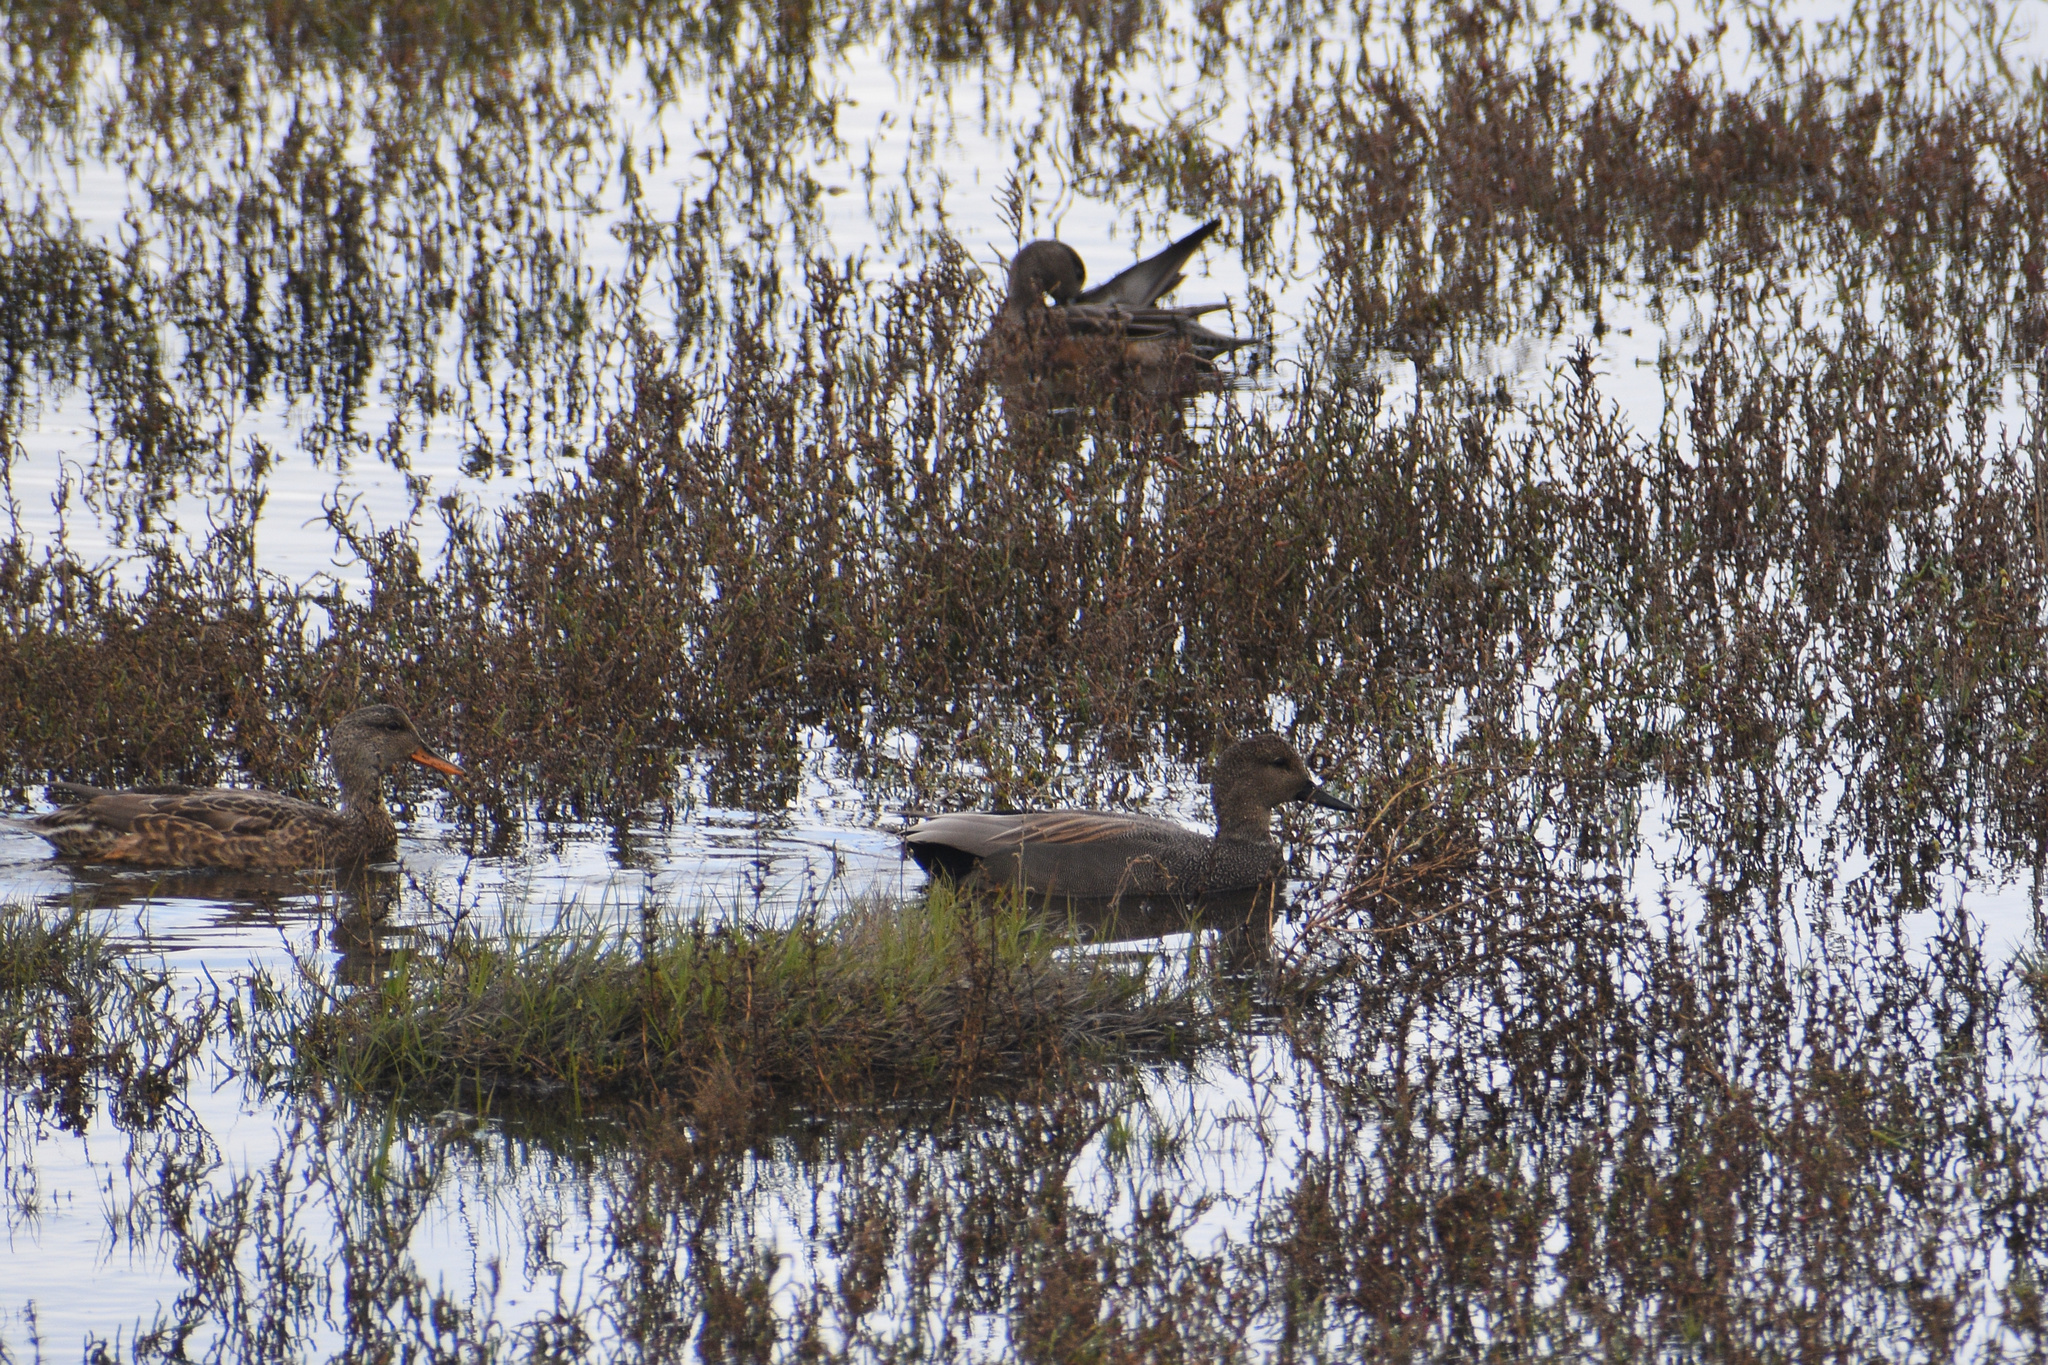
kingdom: Animalia
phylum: Chordata
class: Aves
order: Anseriformes
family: Anatidae
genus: Mareca
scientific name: Mareca strepera
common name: Gadwall
